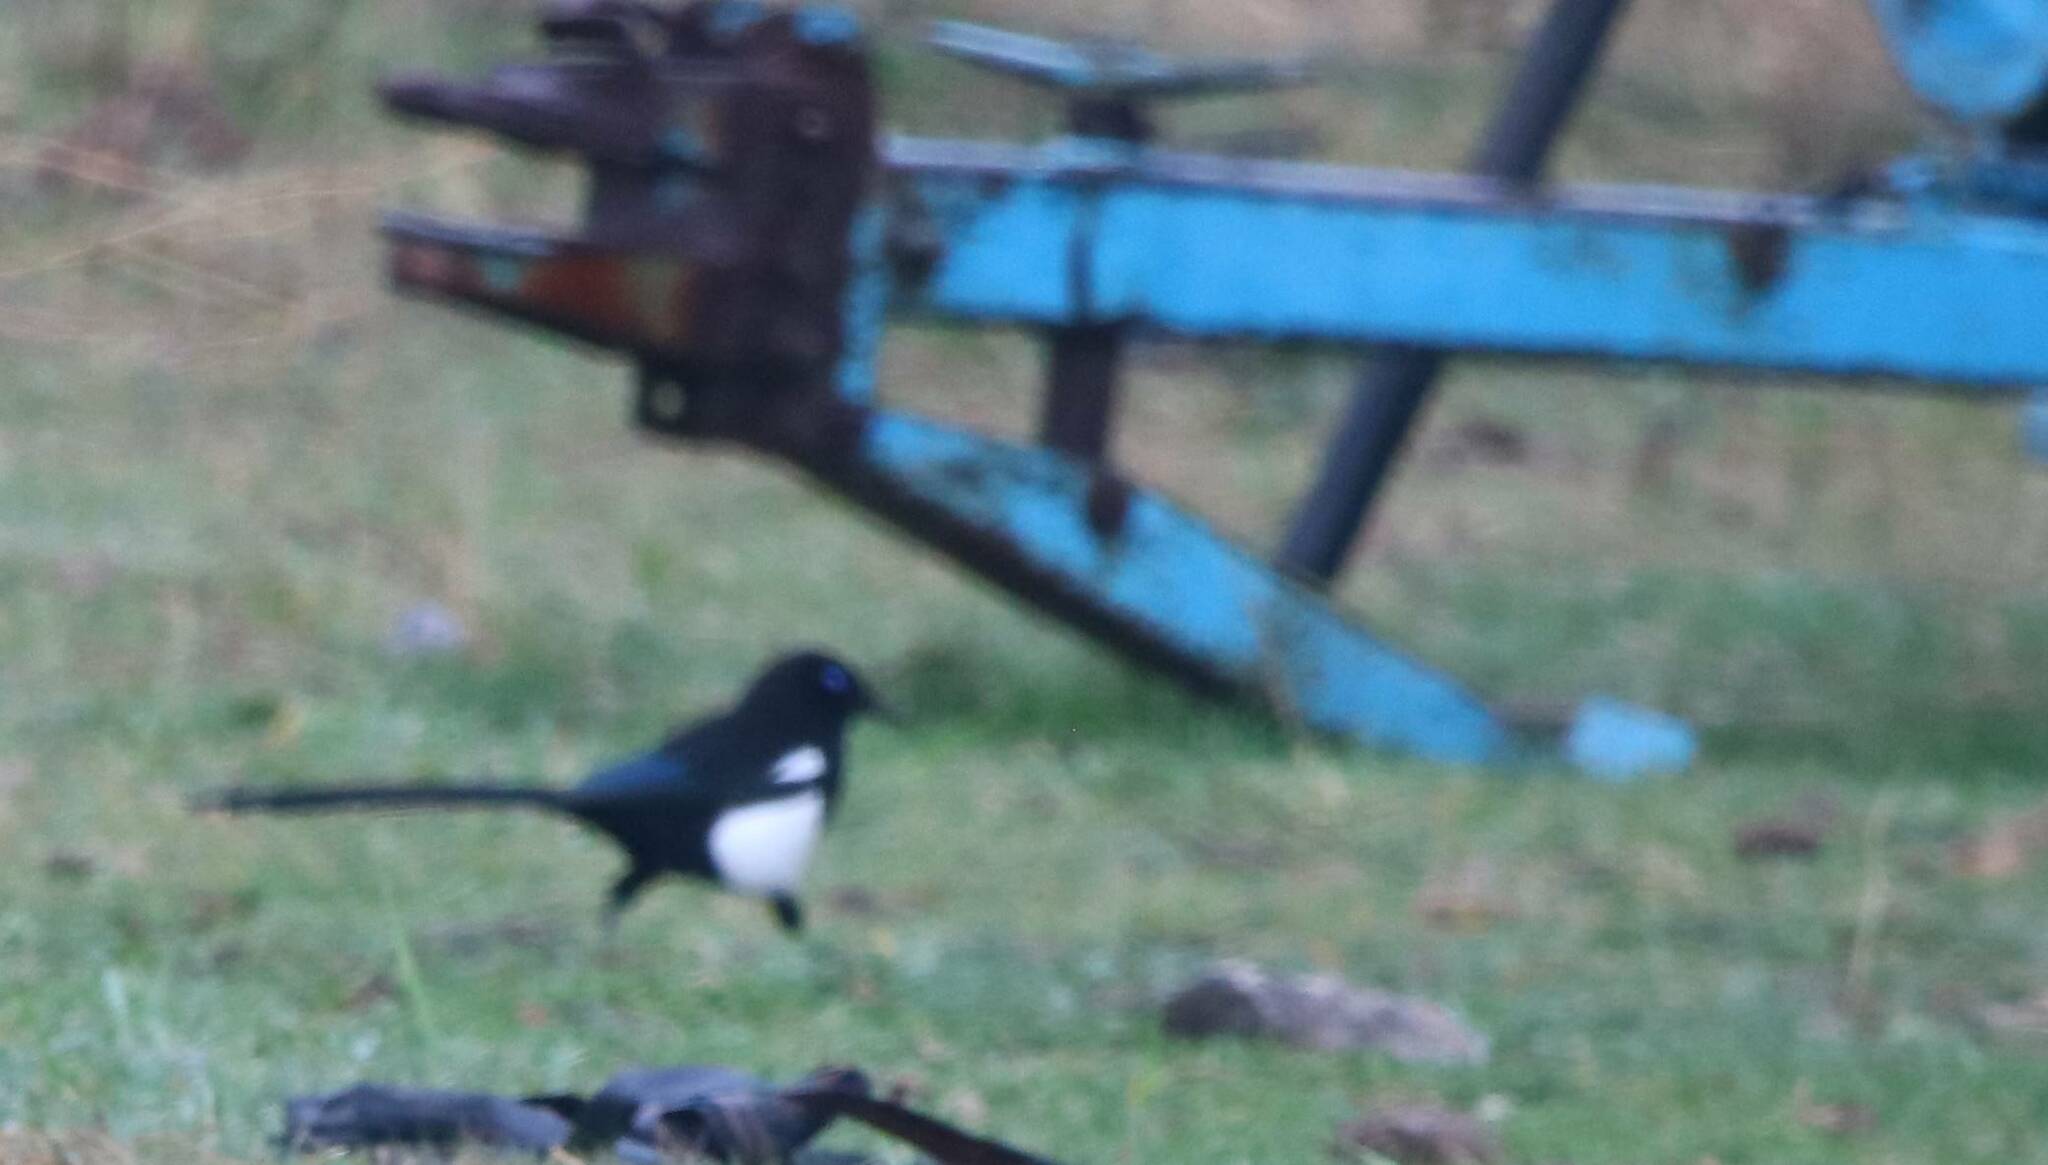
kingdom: Animalia
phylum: Chordata
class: Aves
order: Passeriformes
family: Corvidae
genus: Pica
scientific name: Pica mauritanica
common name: Maghreb magpie
